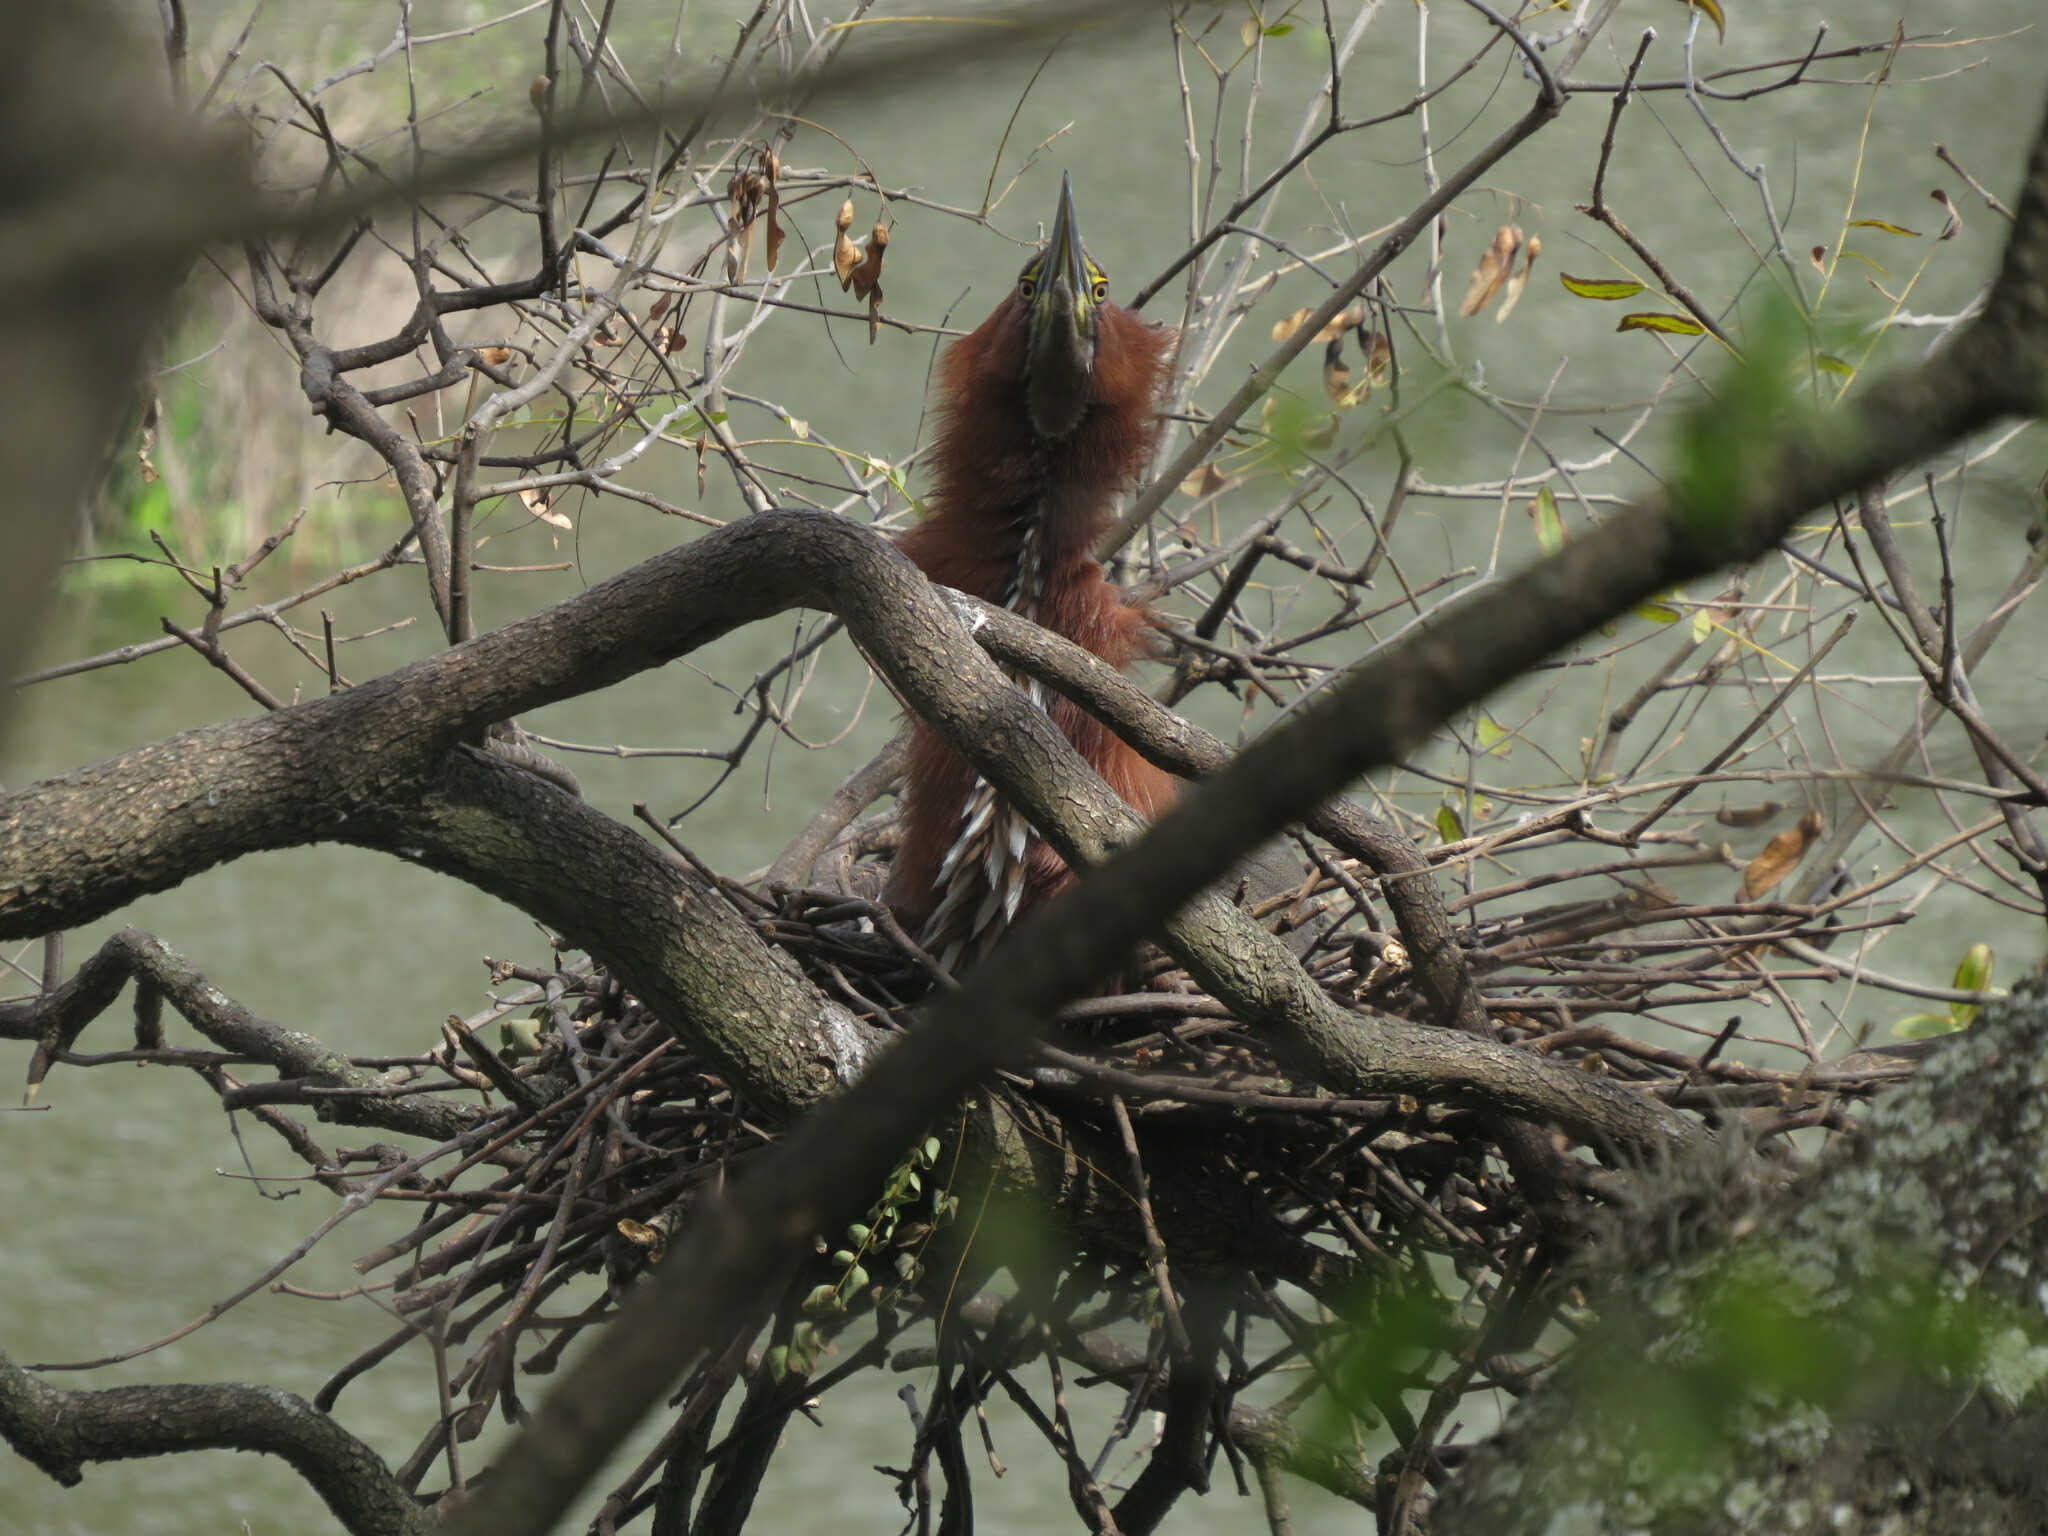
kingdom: Animalia
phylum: Chordata
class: Aves
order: Pelecaniformes
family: Ardeidae
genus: Tigrisoma
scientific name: Tigrisoma lineatum
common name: Rufescent tiger-heron
